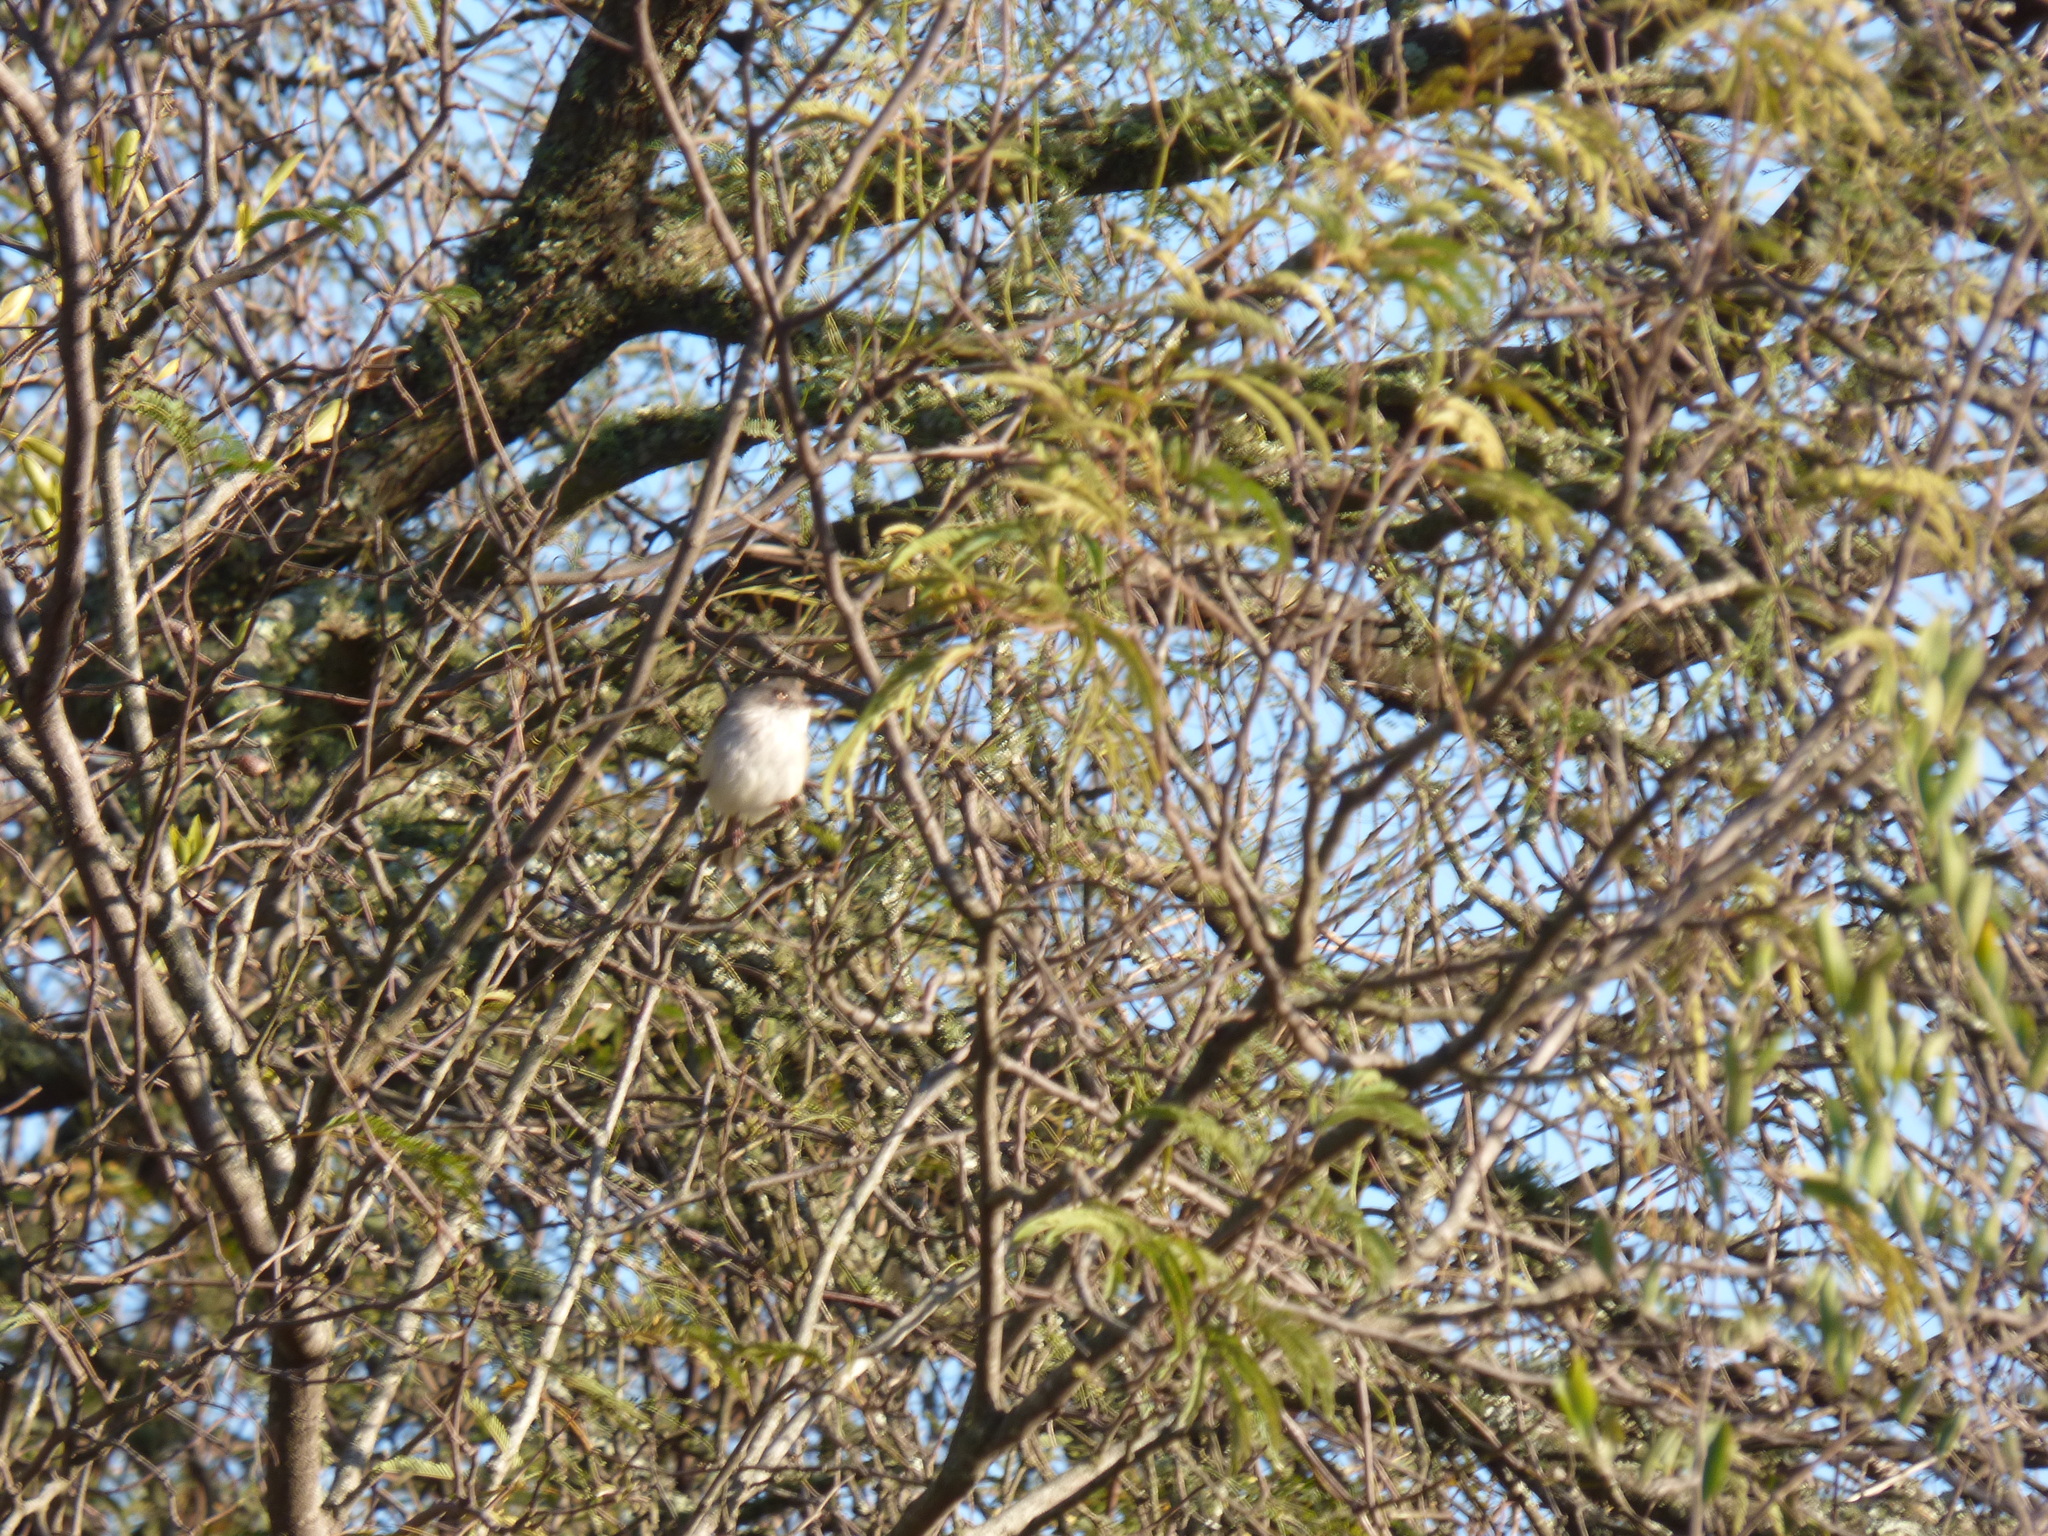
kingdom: Animalia
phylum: Chordata
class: Aves
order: Passeriformes
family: Tyrannidae
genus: Hemitriccus
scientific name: Hemitriccus margaritaceiventer
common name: Pearly-vented tody-tyrant
